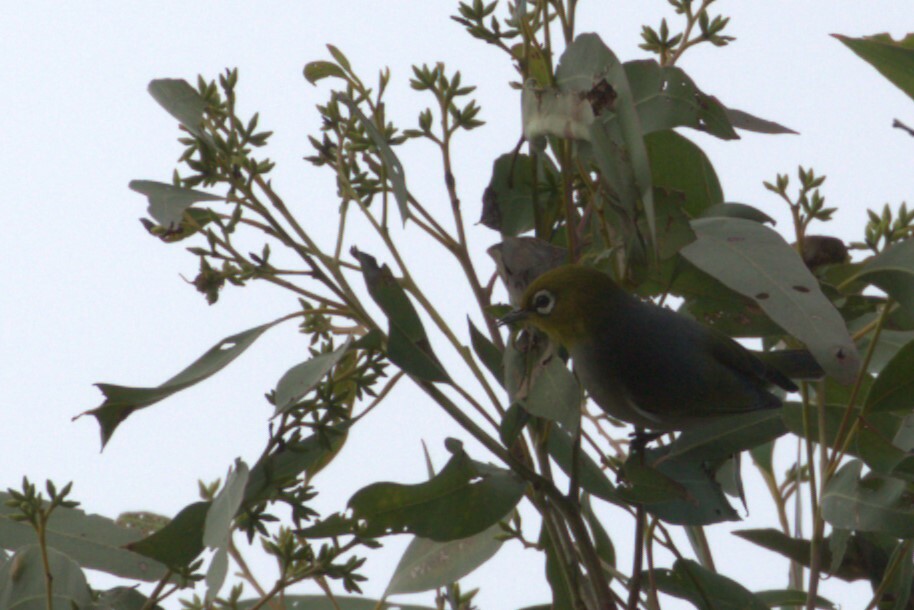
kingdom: Animalia
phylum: Chordata
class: Aves
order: Passeriformes
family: Zosteropidae
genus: Zosterops
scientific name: Zosterops lateralis
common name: Silvereye
